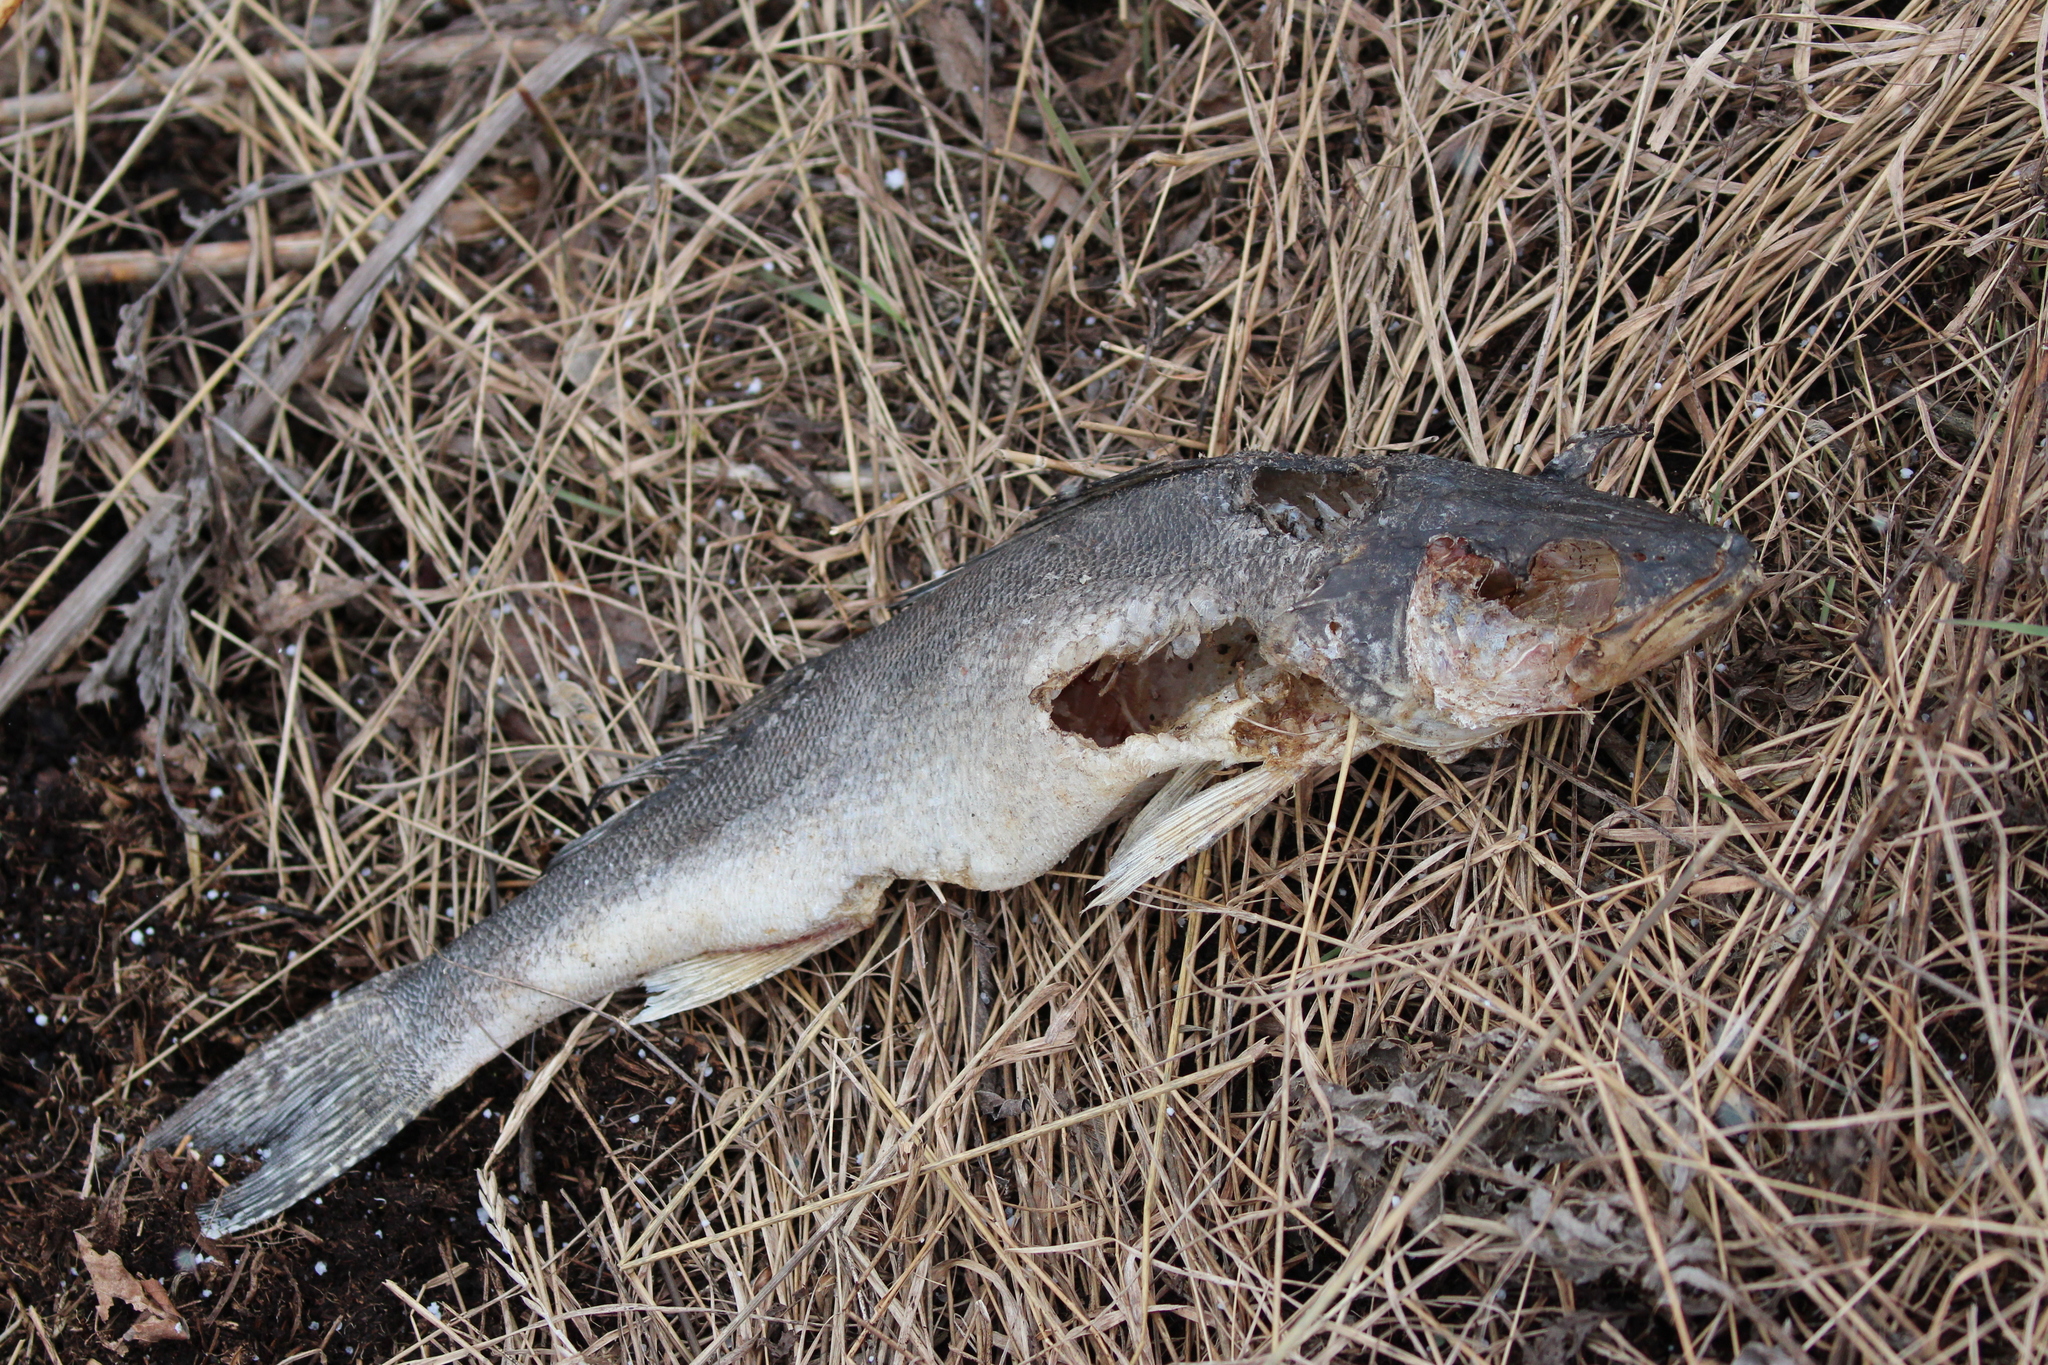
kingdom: Animalia
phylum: Chordata
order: Perciformes
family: Percidae
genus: Sander
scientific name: Sander vitreus
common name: Walleye
